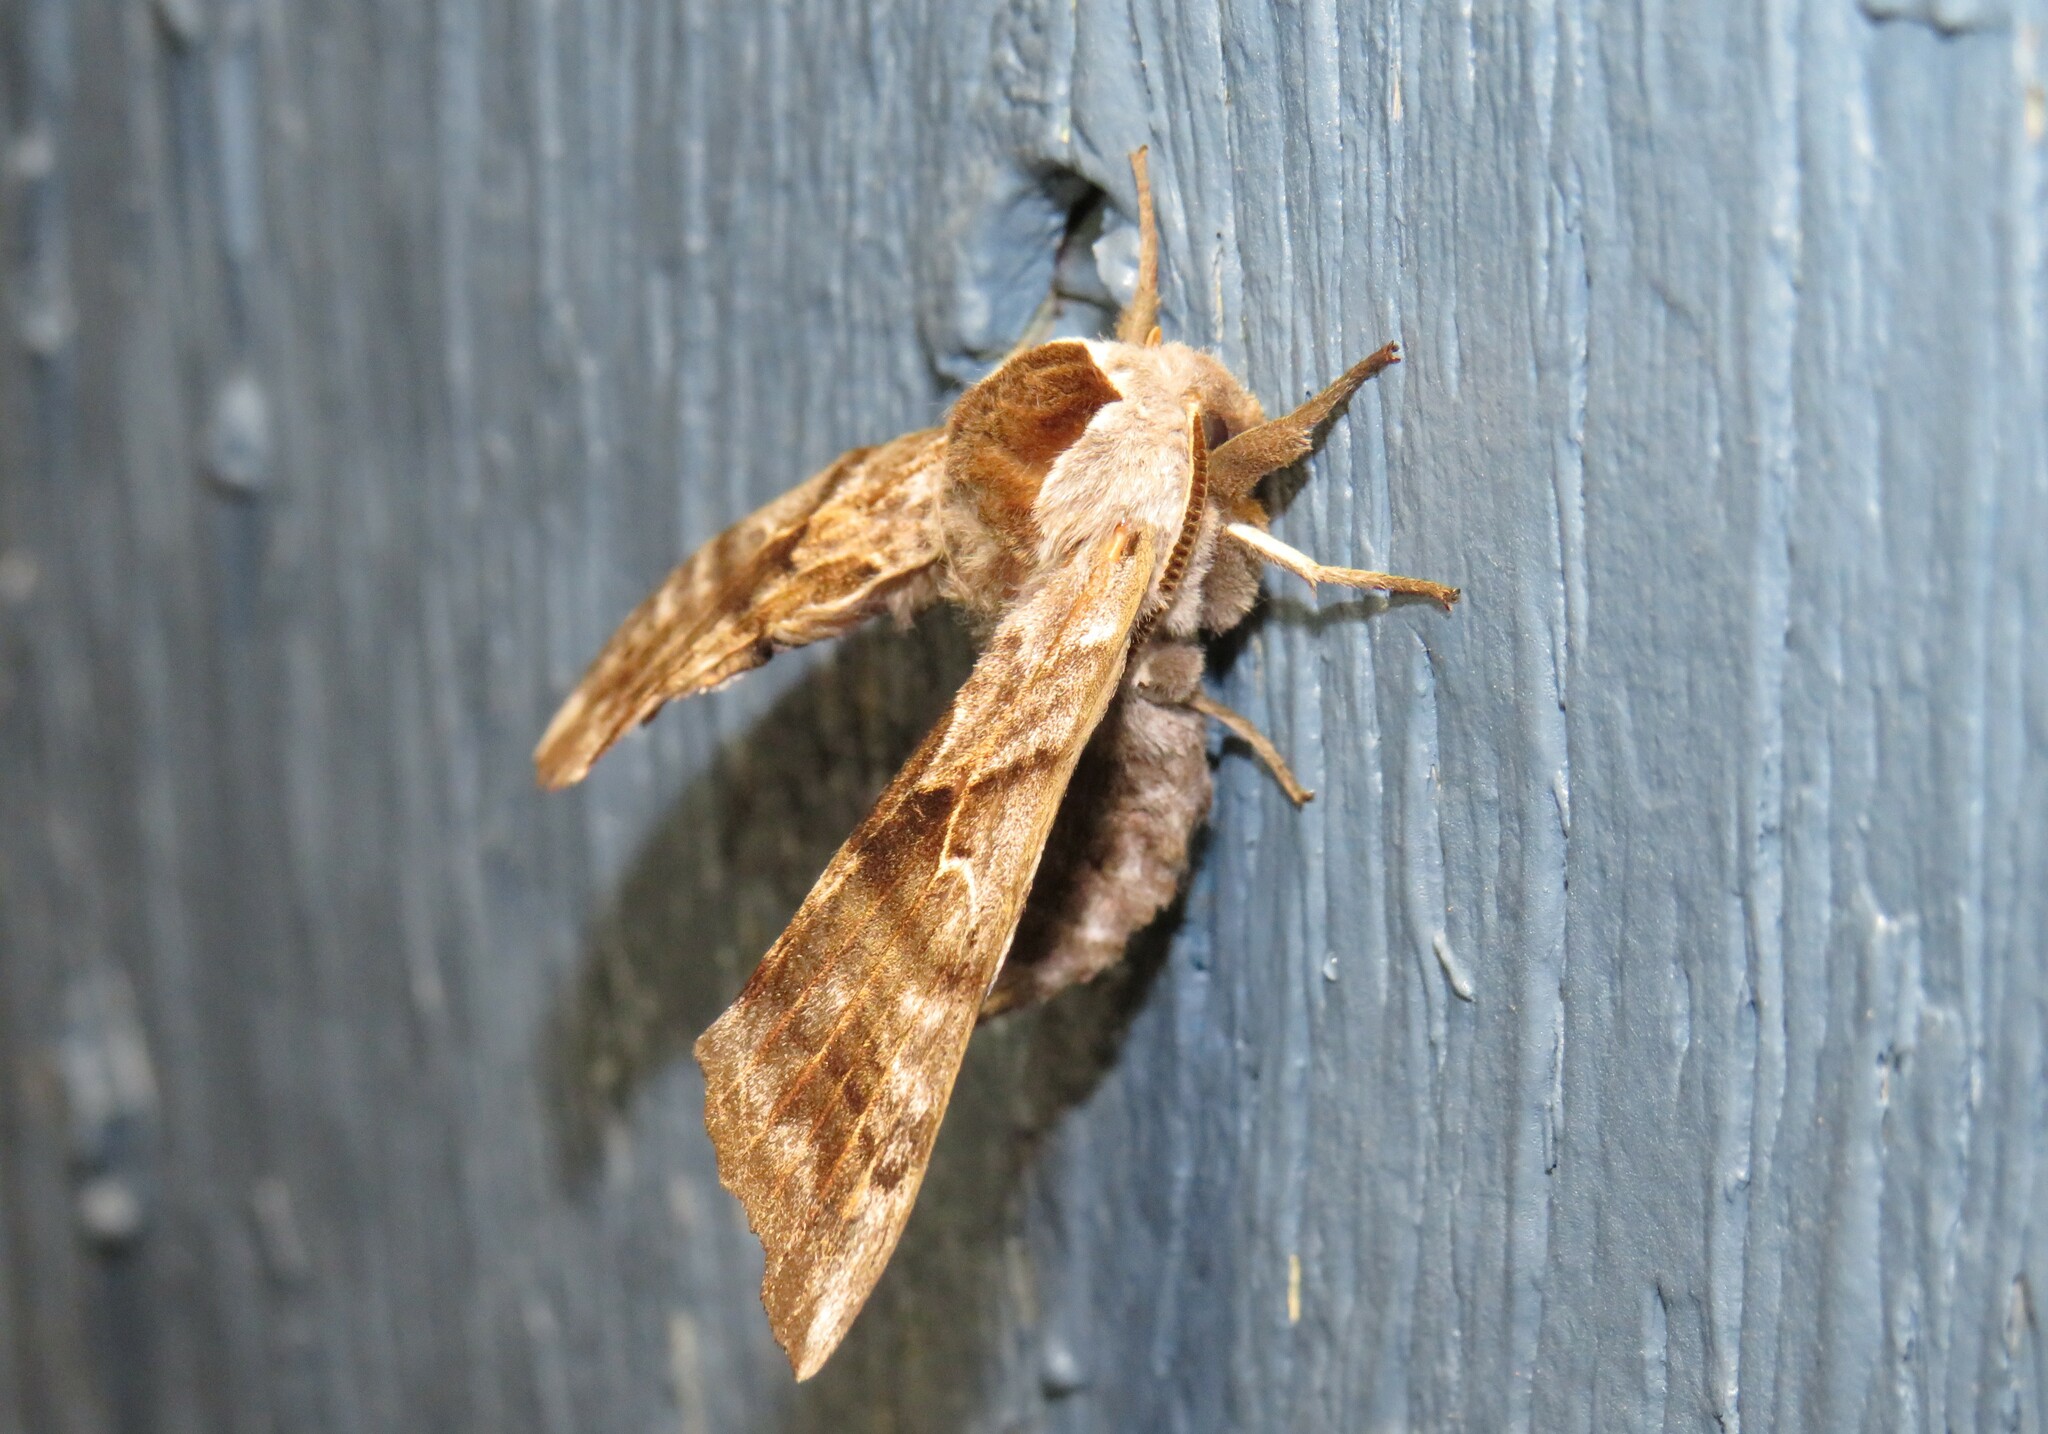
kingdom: Animalia
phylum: Arthropoda
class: Insecta
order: Lepidoptera
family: Sphingidae
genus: Smerinthus
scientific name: Smerinthus cerisyi
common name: Cerisy's sphinx moth
